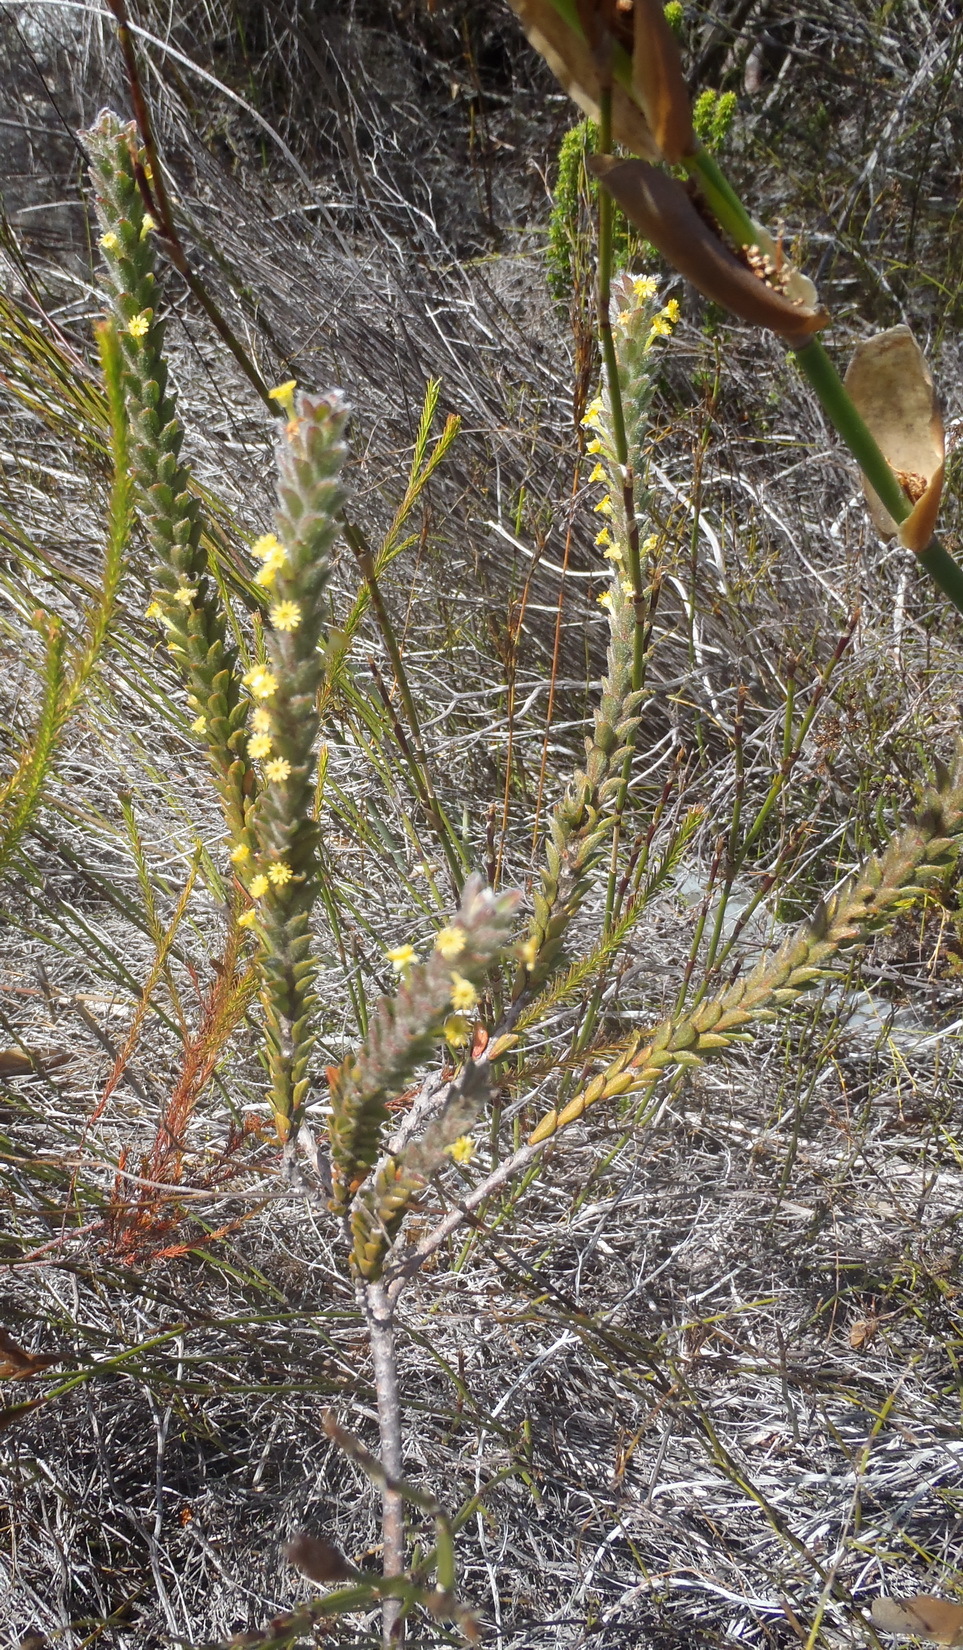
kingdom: Plantae
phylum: Tracheophyta
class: Magnoliopsida
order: Malvales
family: Thymelaeaceae
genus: Struthiola
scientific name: Struthiola tomentosa
